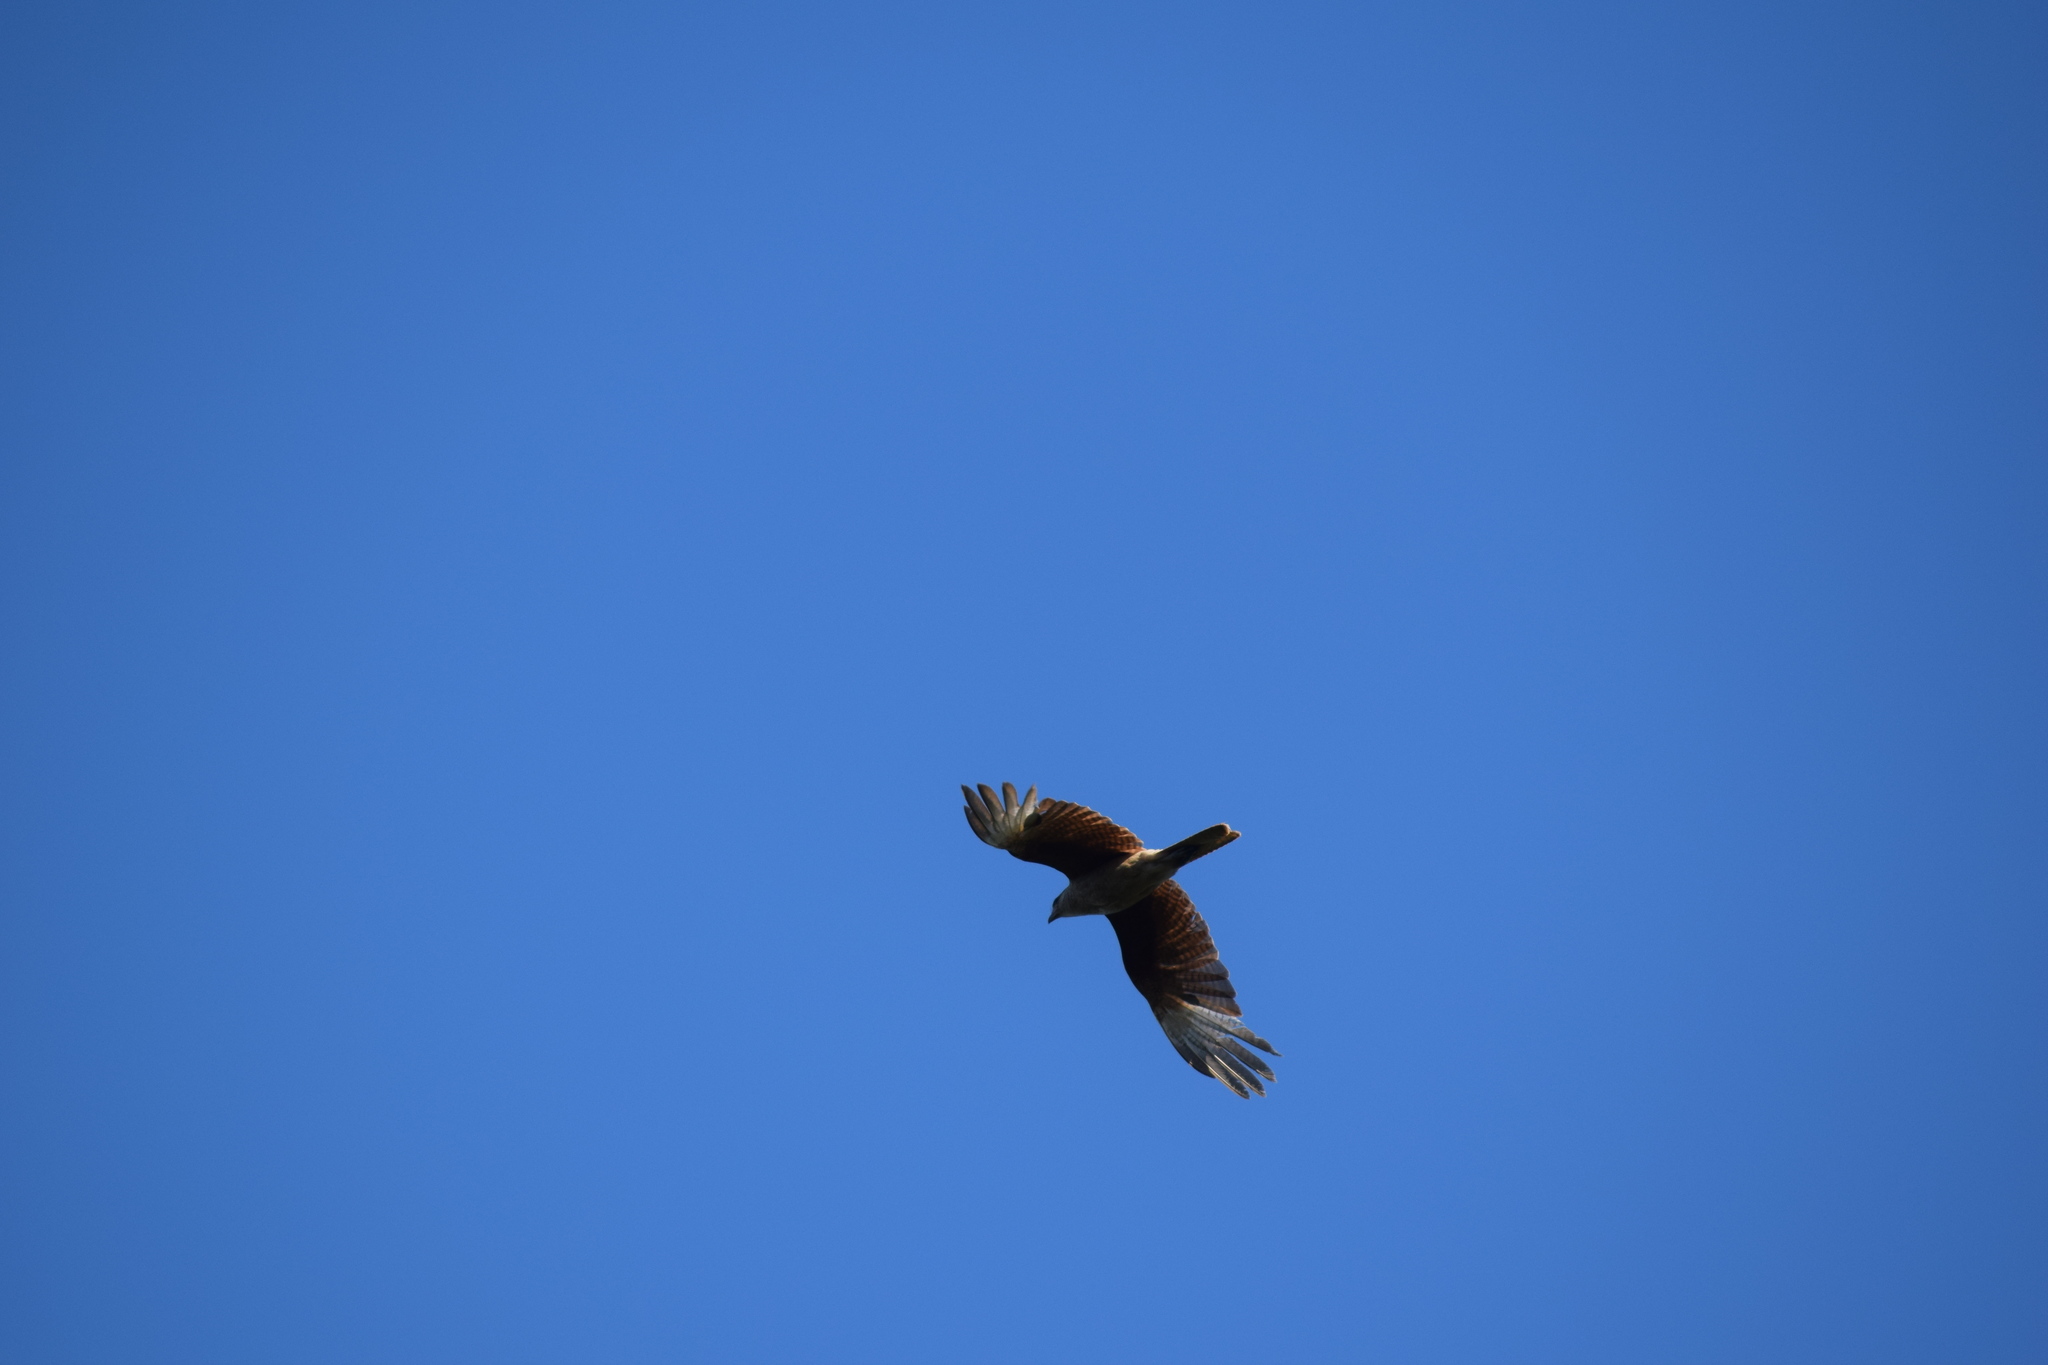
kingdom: Animalia
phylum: Chordata
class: Aves
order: Falconiformes
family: Falconidae
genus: Daptrius
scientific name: Daptrius
